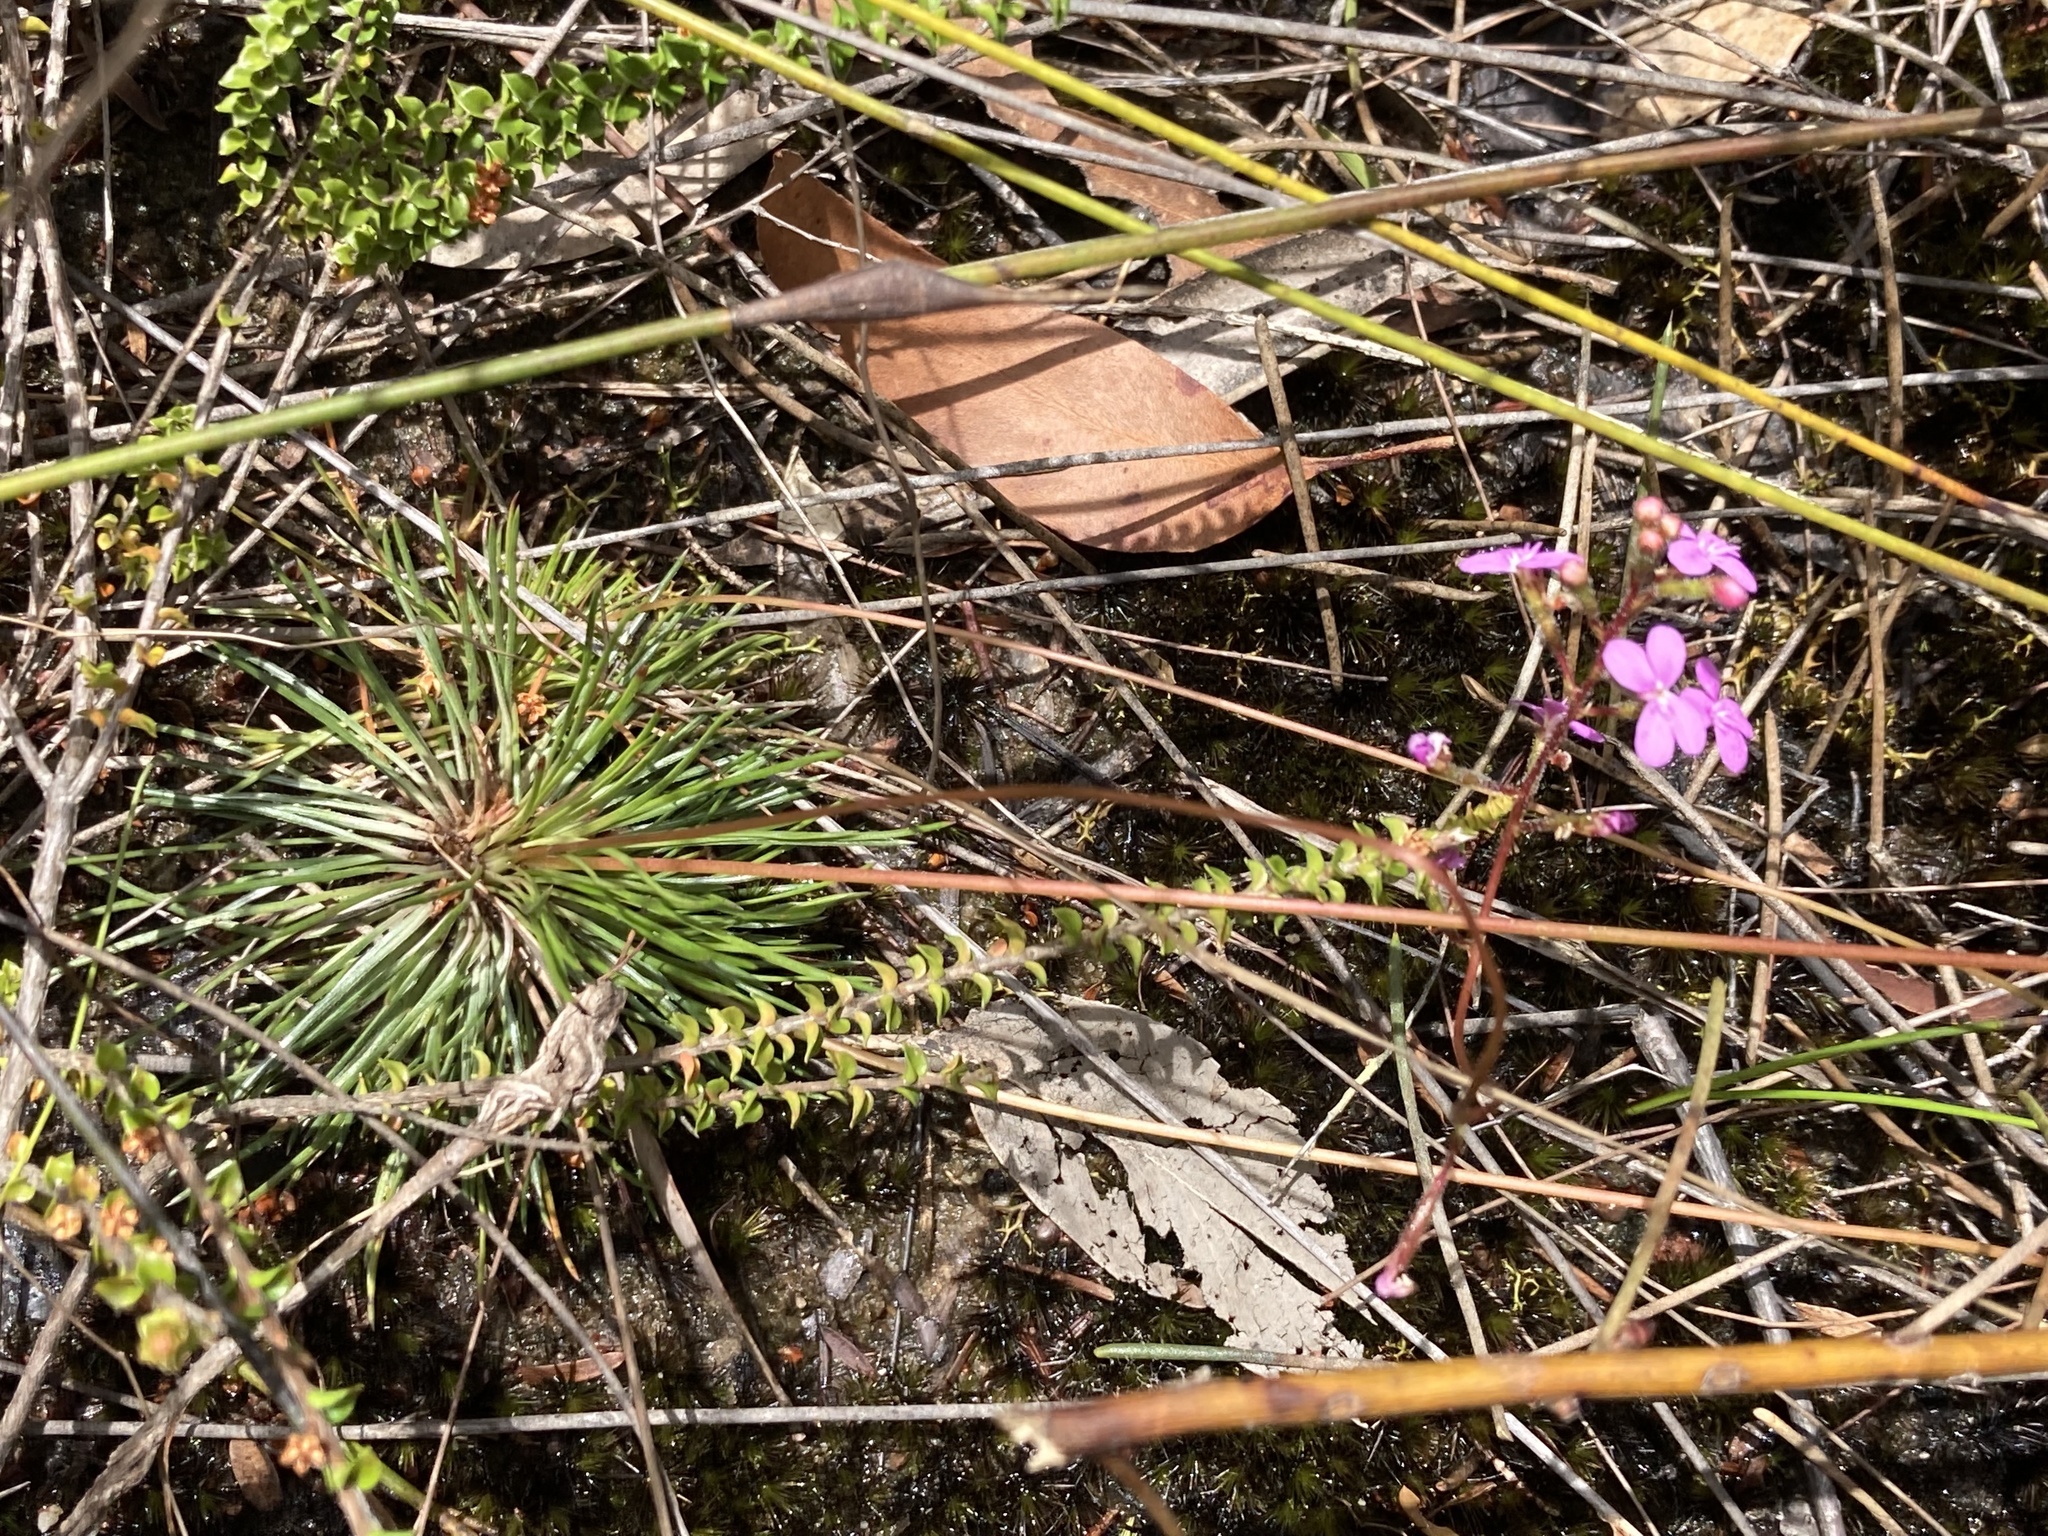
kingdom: Plantae
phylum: Tracheophyta
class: Magnoliopsida
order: Asterales
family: Stylidiaceae
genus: Stylidium
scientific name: Stylidium lineare
